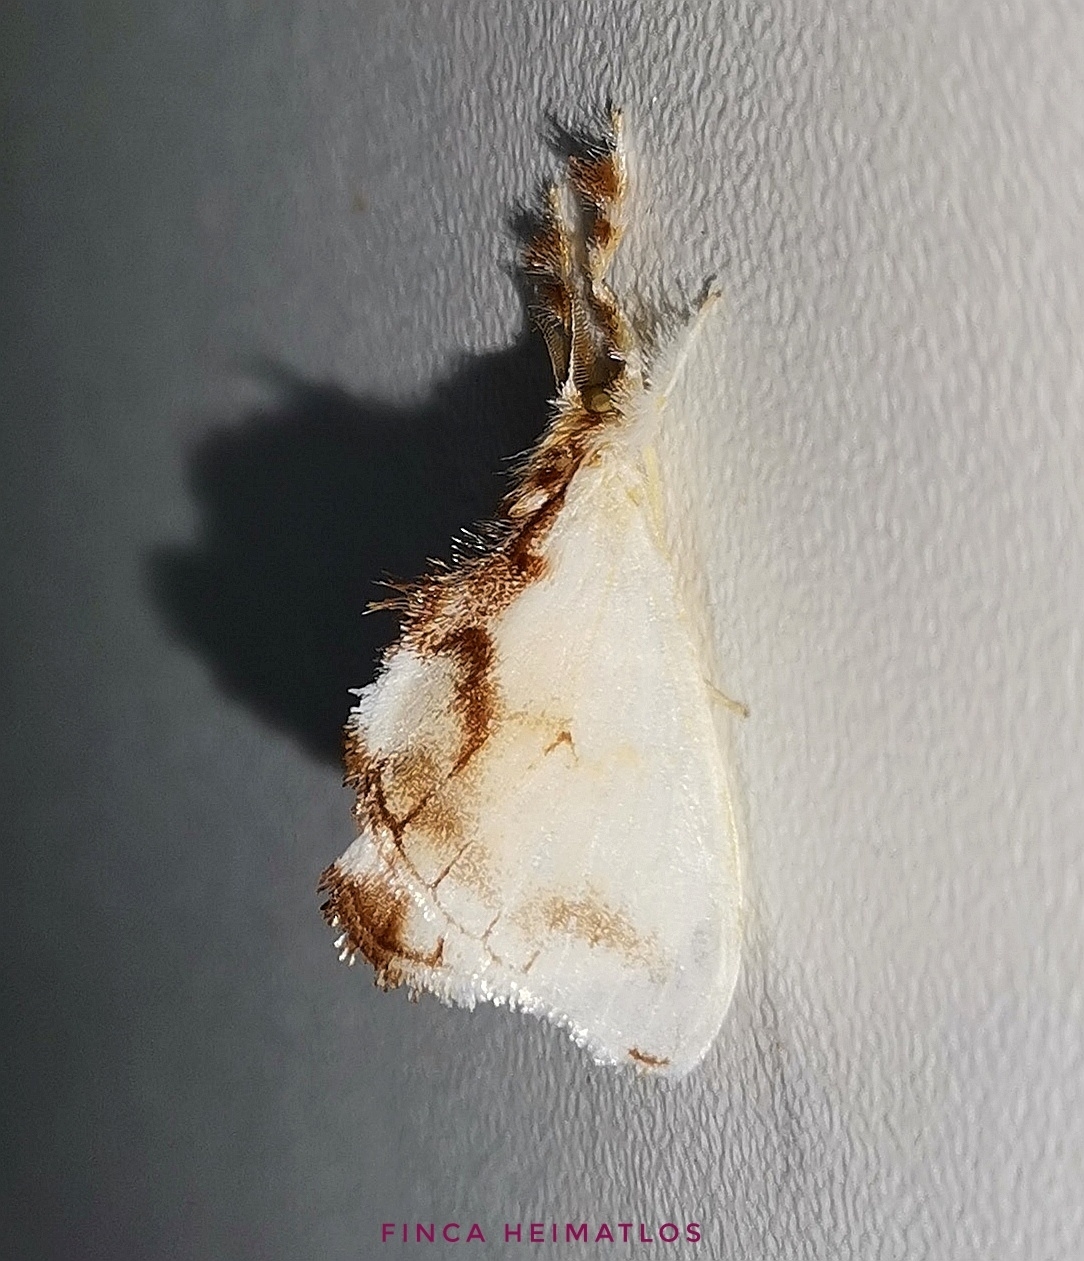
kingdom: Animalia
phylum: Arthropoda
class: Insecta
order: Lepidoptera
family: Dalceridae
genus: Dalcerides
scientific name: Dalcerides
